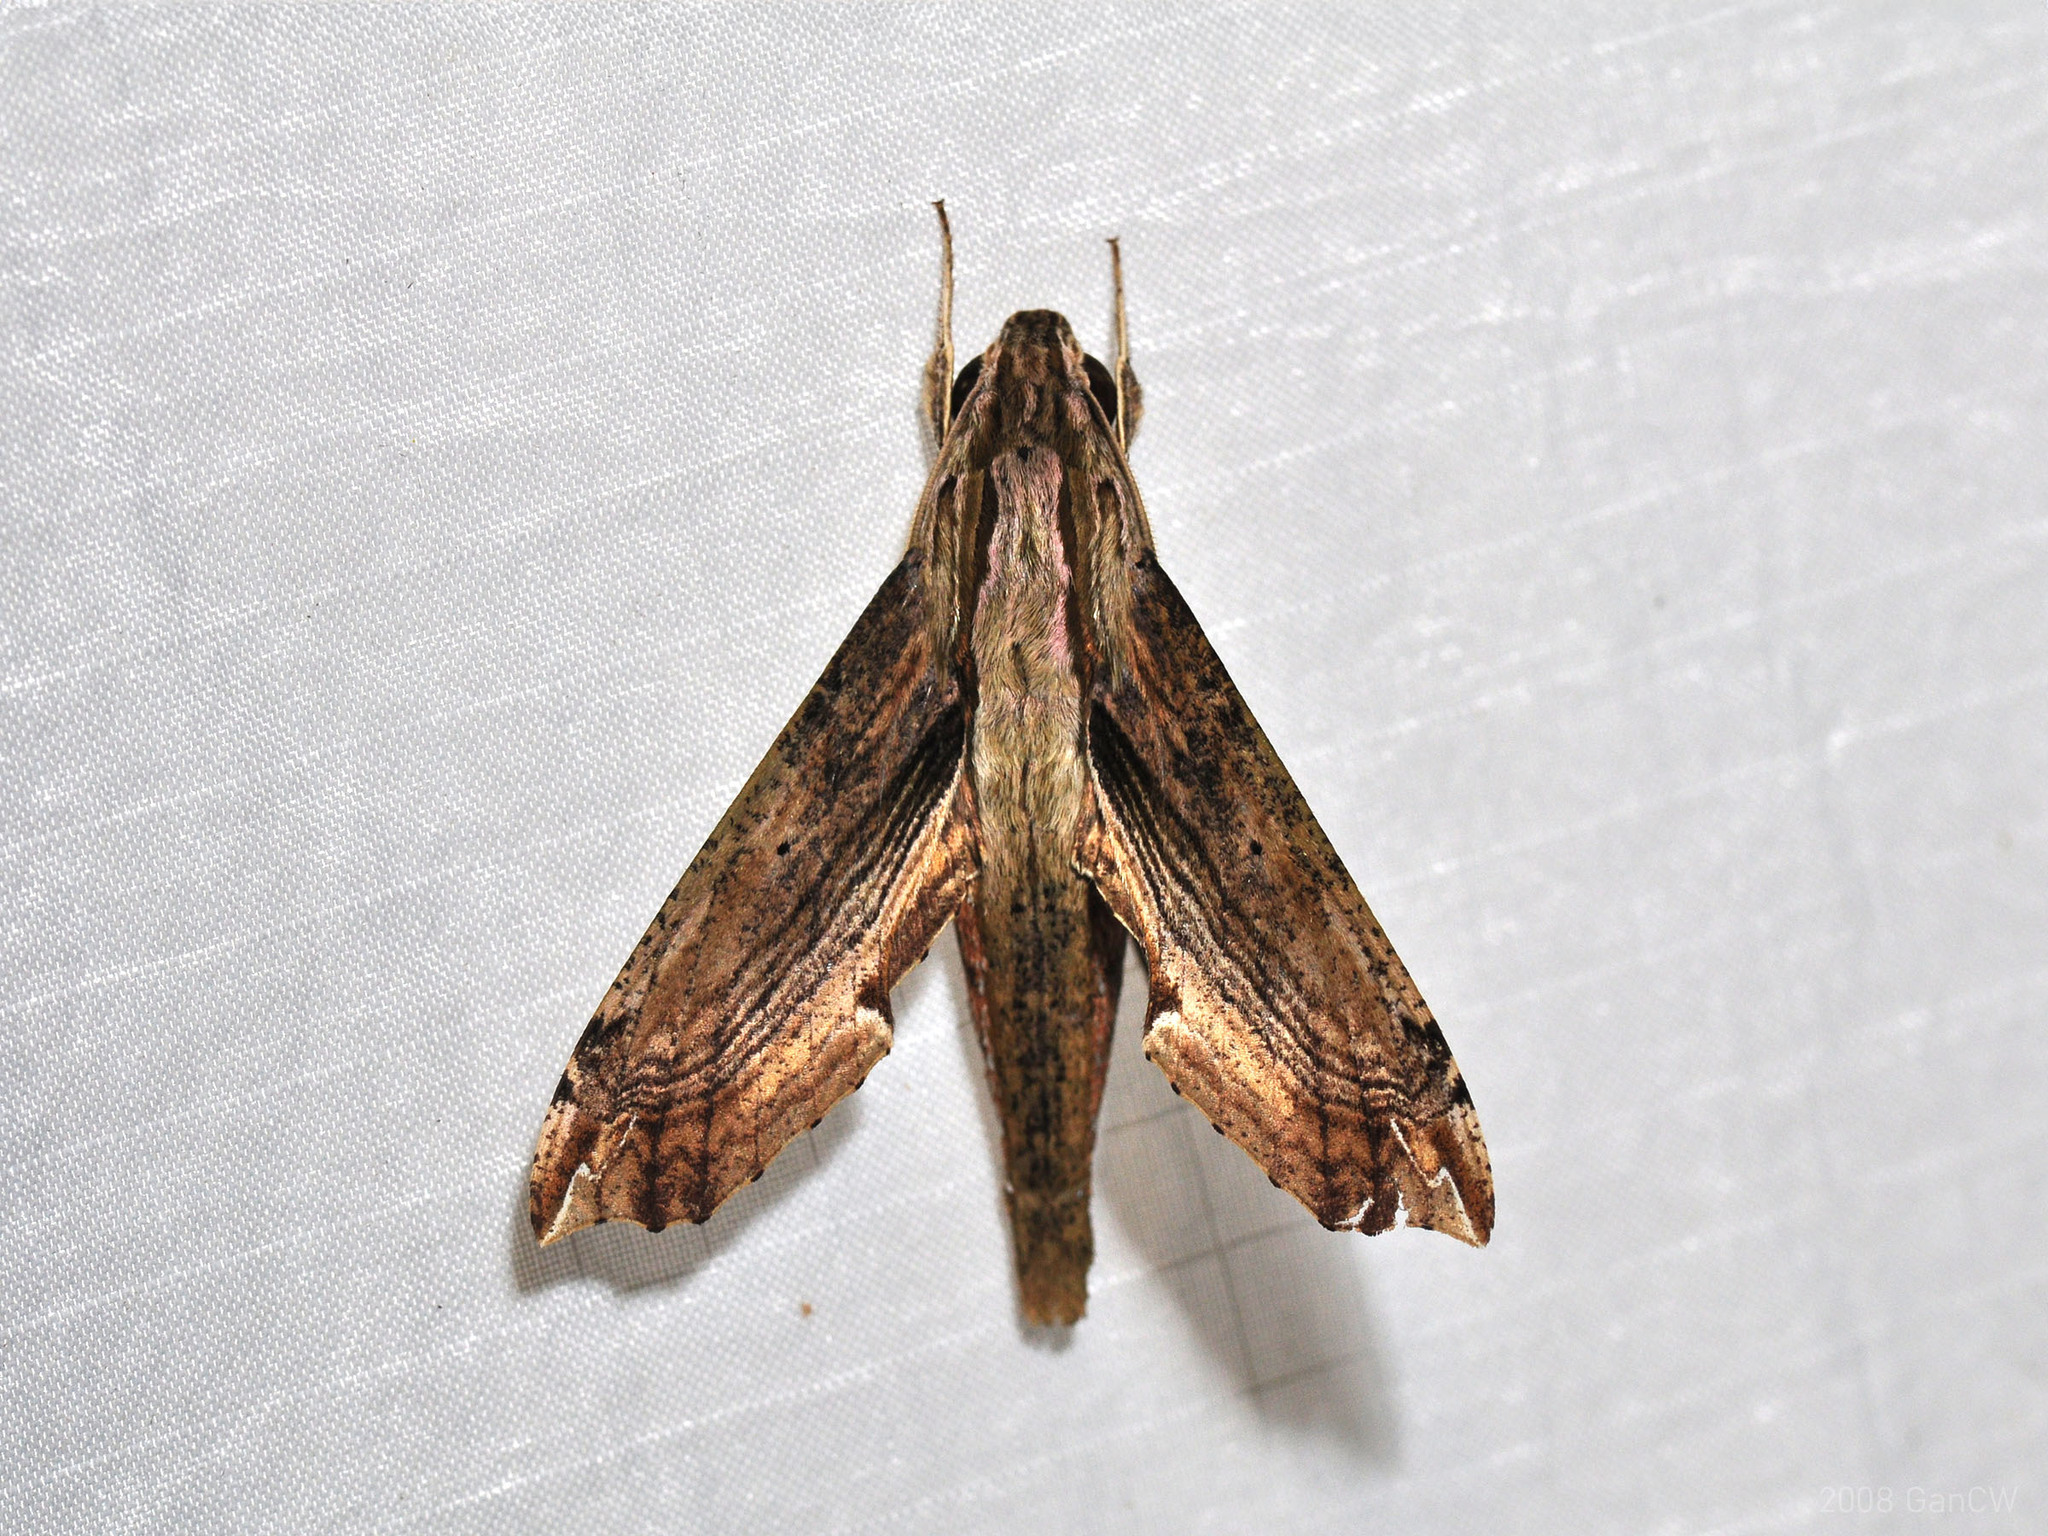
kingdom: Animalia
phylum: Arthropoda
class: Insecta
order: Lepidoptera
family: Sphingidae
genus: Eupanacra
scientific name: Eupanacra regularis
